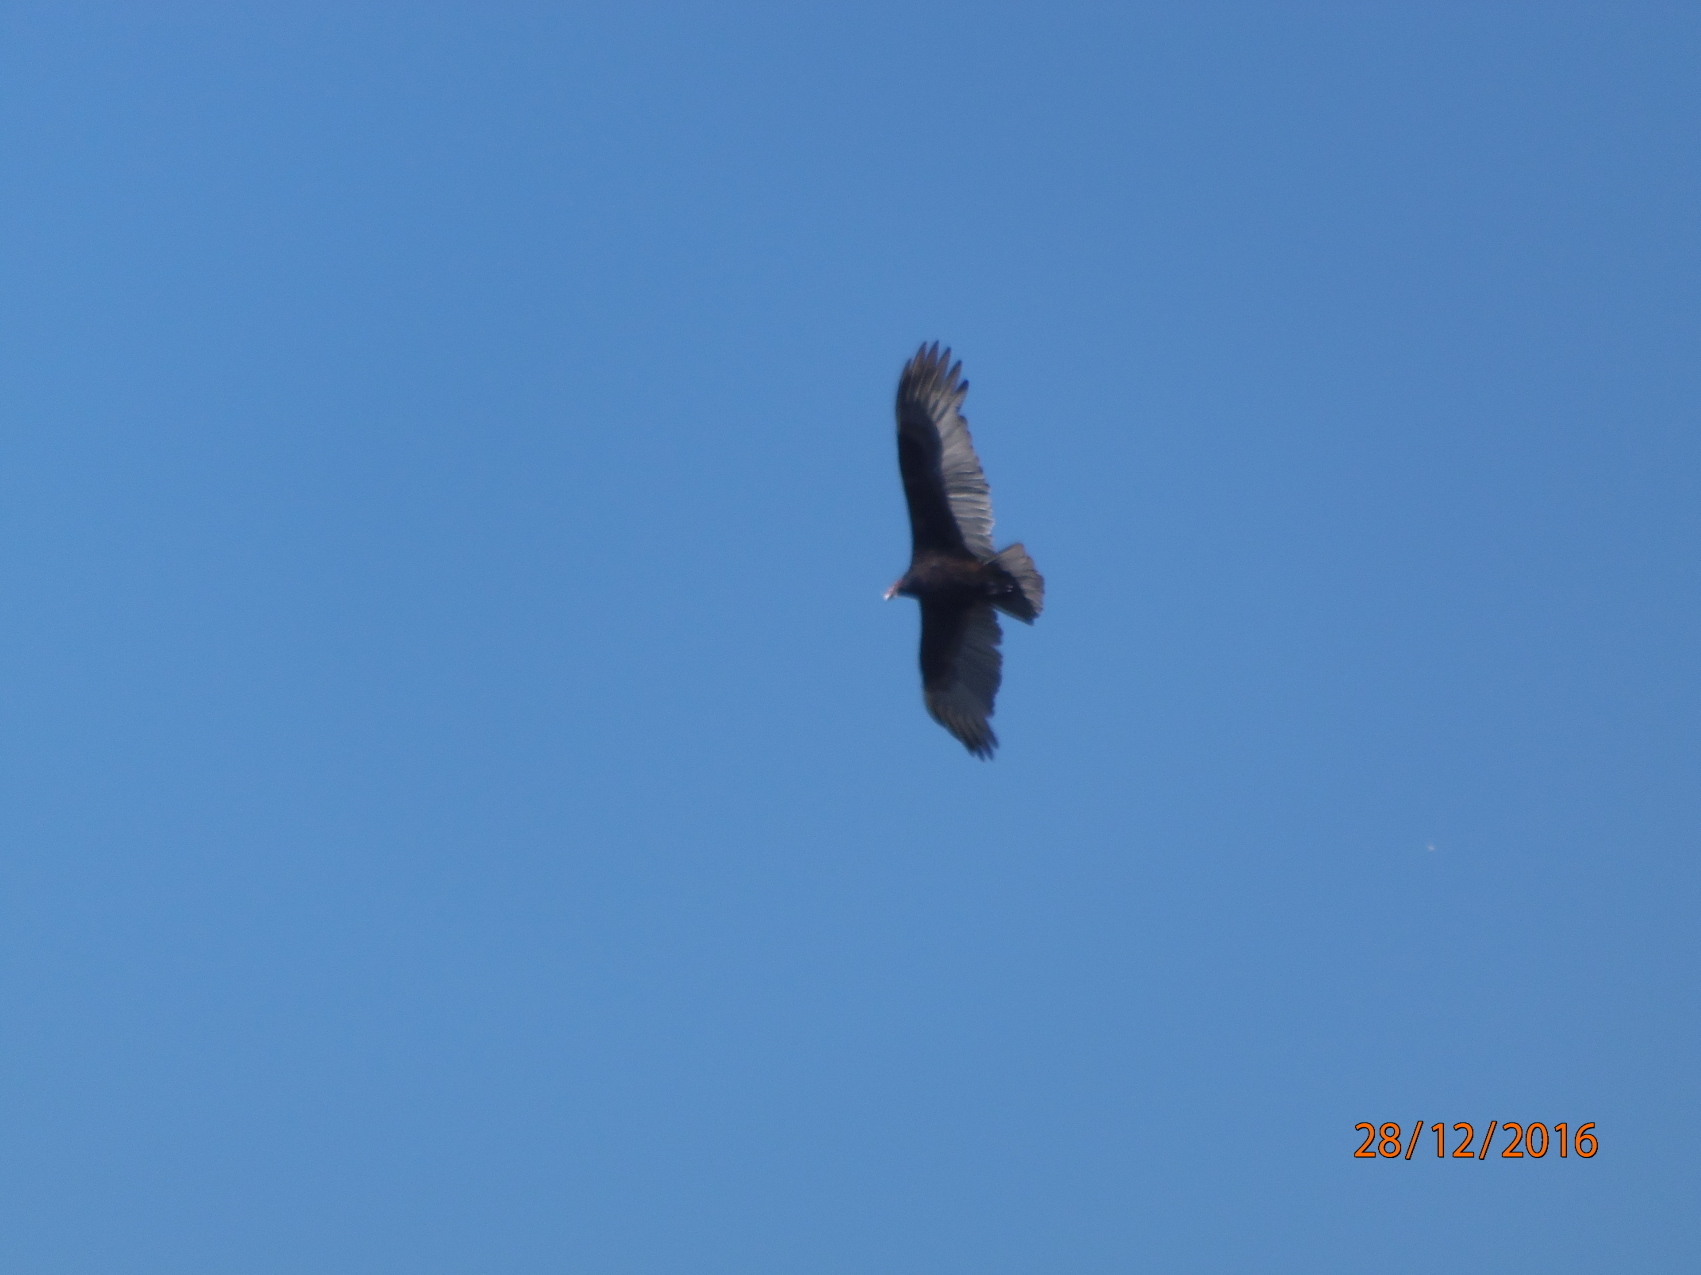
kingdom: Animalia
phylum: Chordata
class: Aves
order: Accipitriformes
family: Cathartidae
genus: Cathartes
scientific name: Cathartes aura
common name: Turkey vulture
